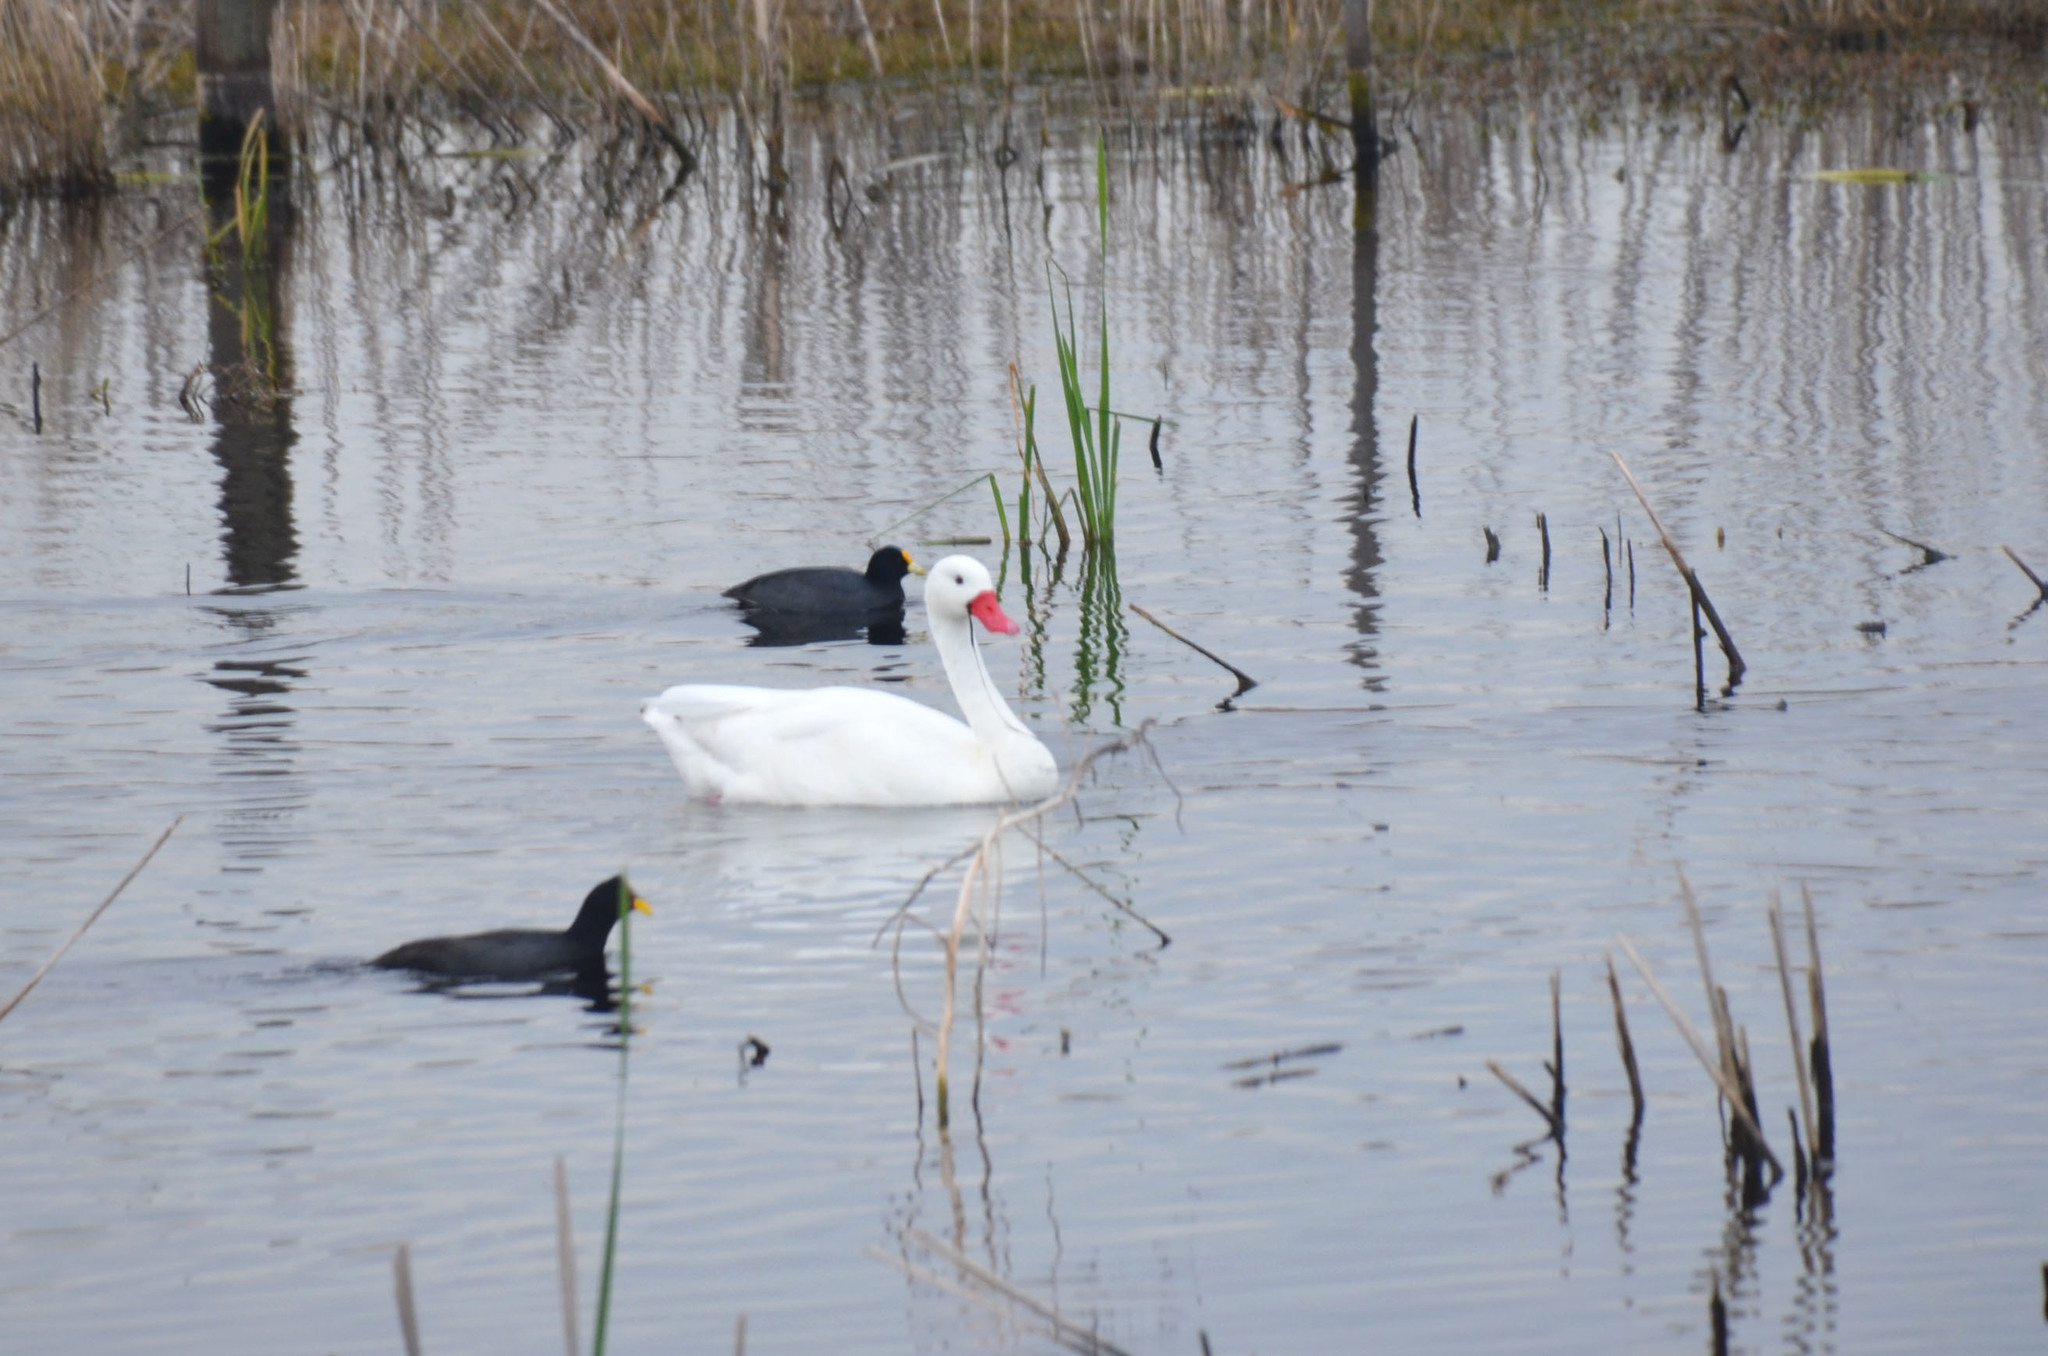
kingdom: Animalia
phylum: Chordata
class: Aves
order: Gruiformes
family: Rallidae
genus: Fulica
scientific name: Fulica leucoptera
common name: White-winged coot
